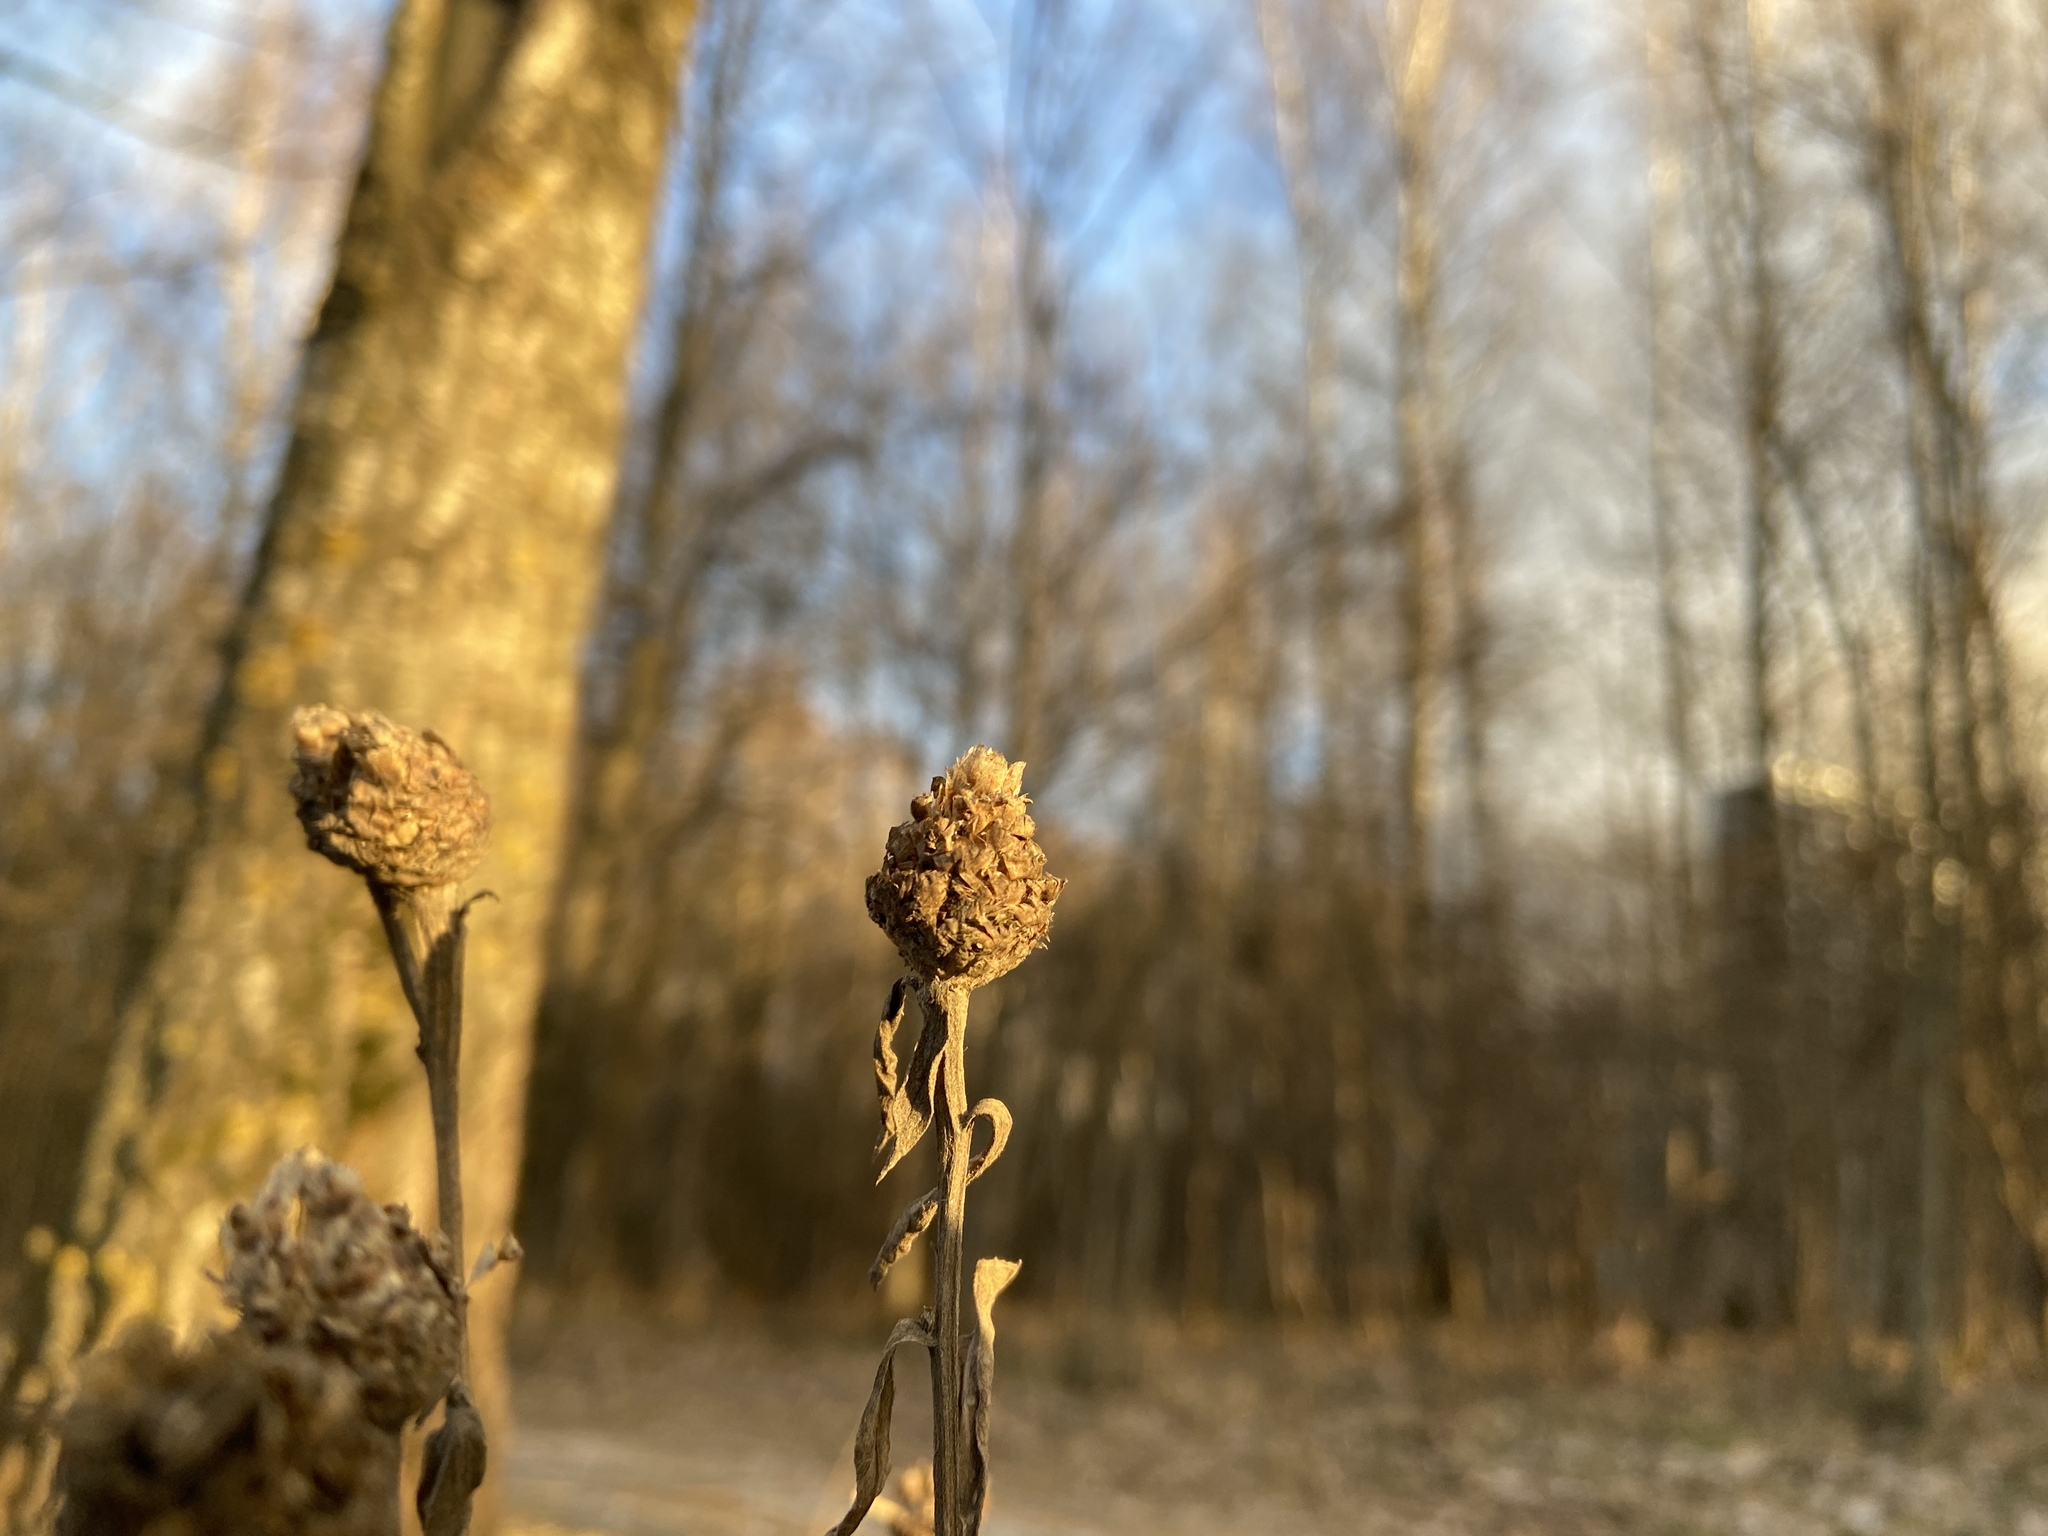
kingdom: Plantae
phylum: Tracheophyta
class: Magnoliopsida
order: Asterales
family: Asteraceae
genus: Centaurea
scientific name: Centaurea jacea
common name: Brown knapweed
